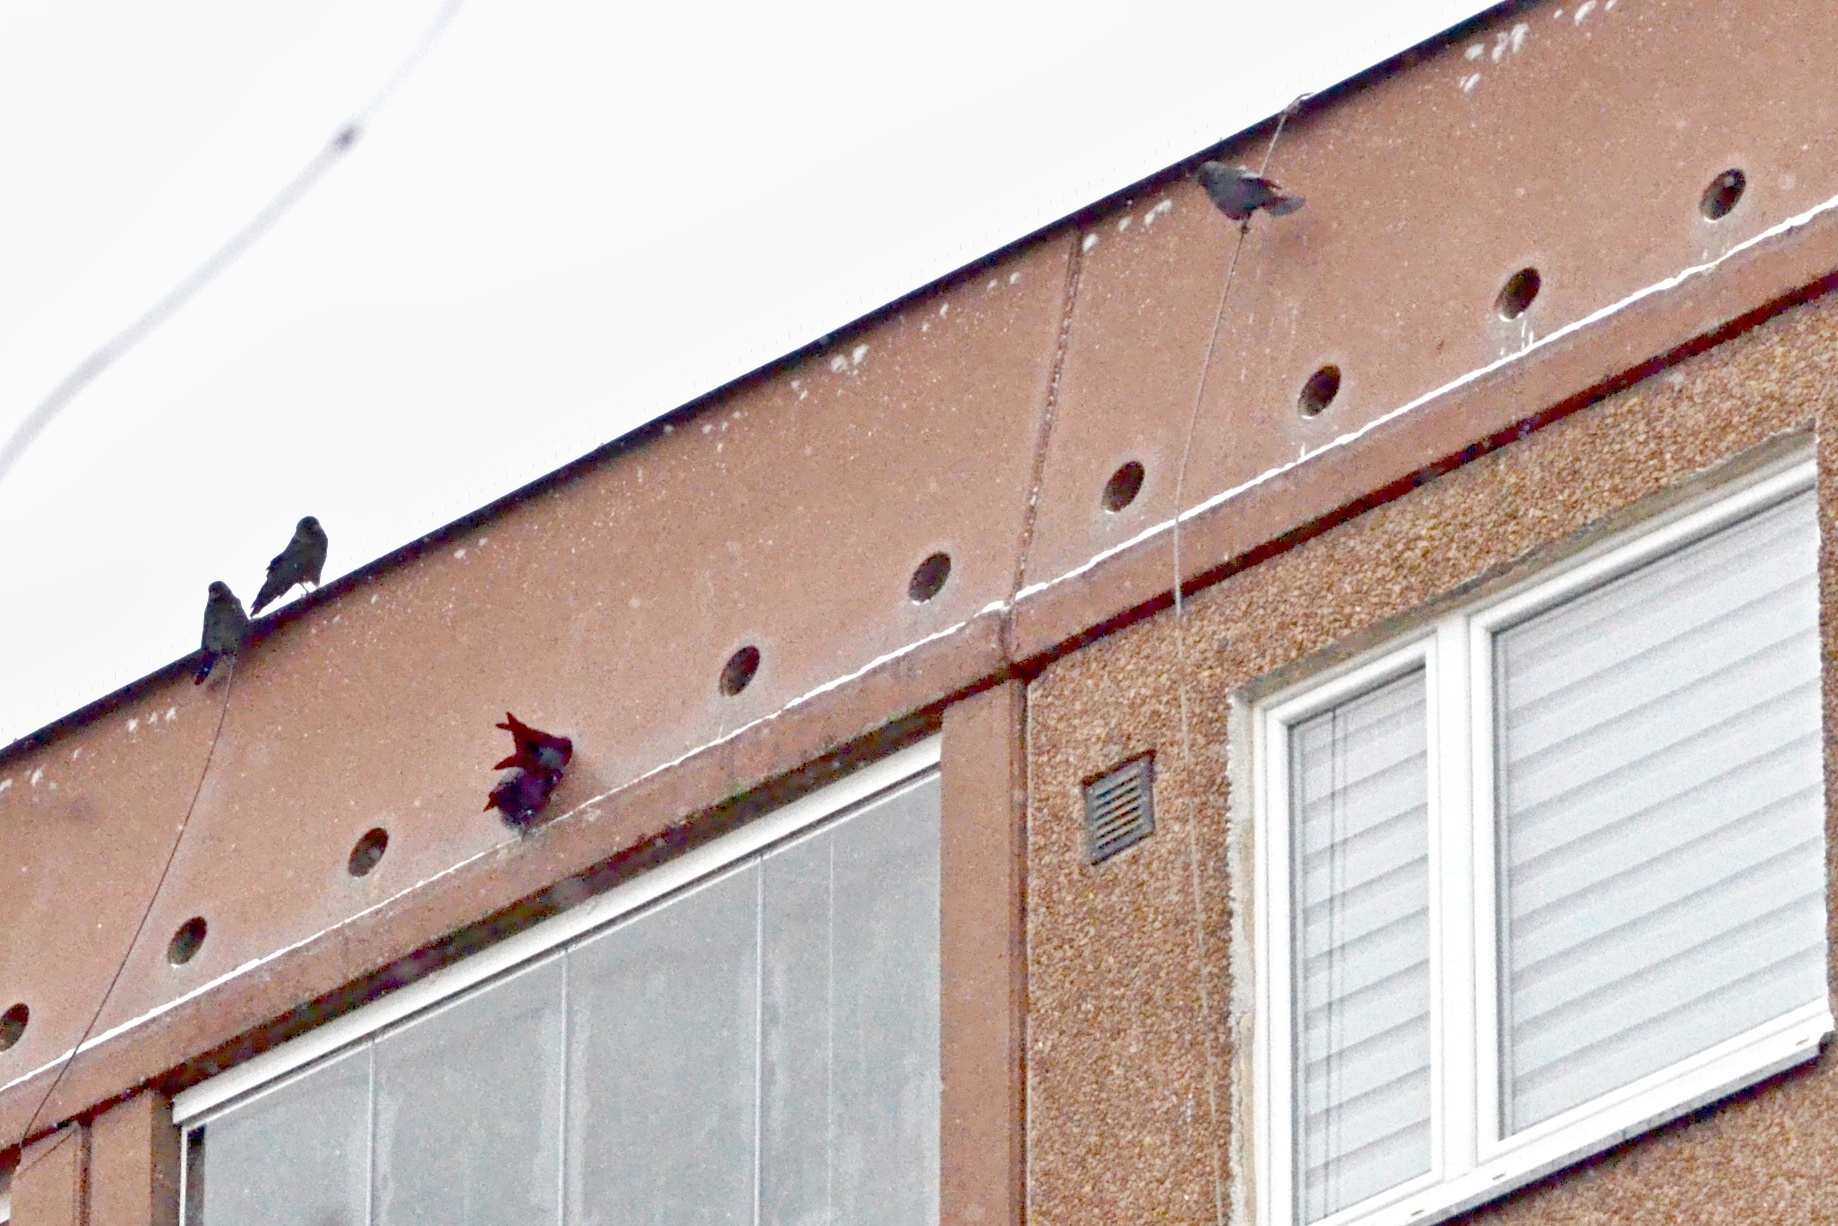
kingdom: Animalia
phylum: Chordata
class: Aves
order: Passeriformes
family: Corvidae
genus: Coloeus
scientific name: Coloeus monedula
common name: Western jackdaw
